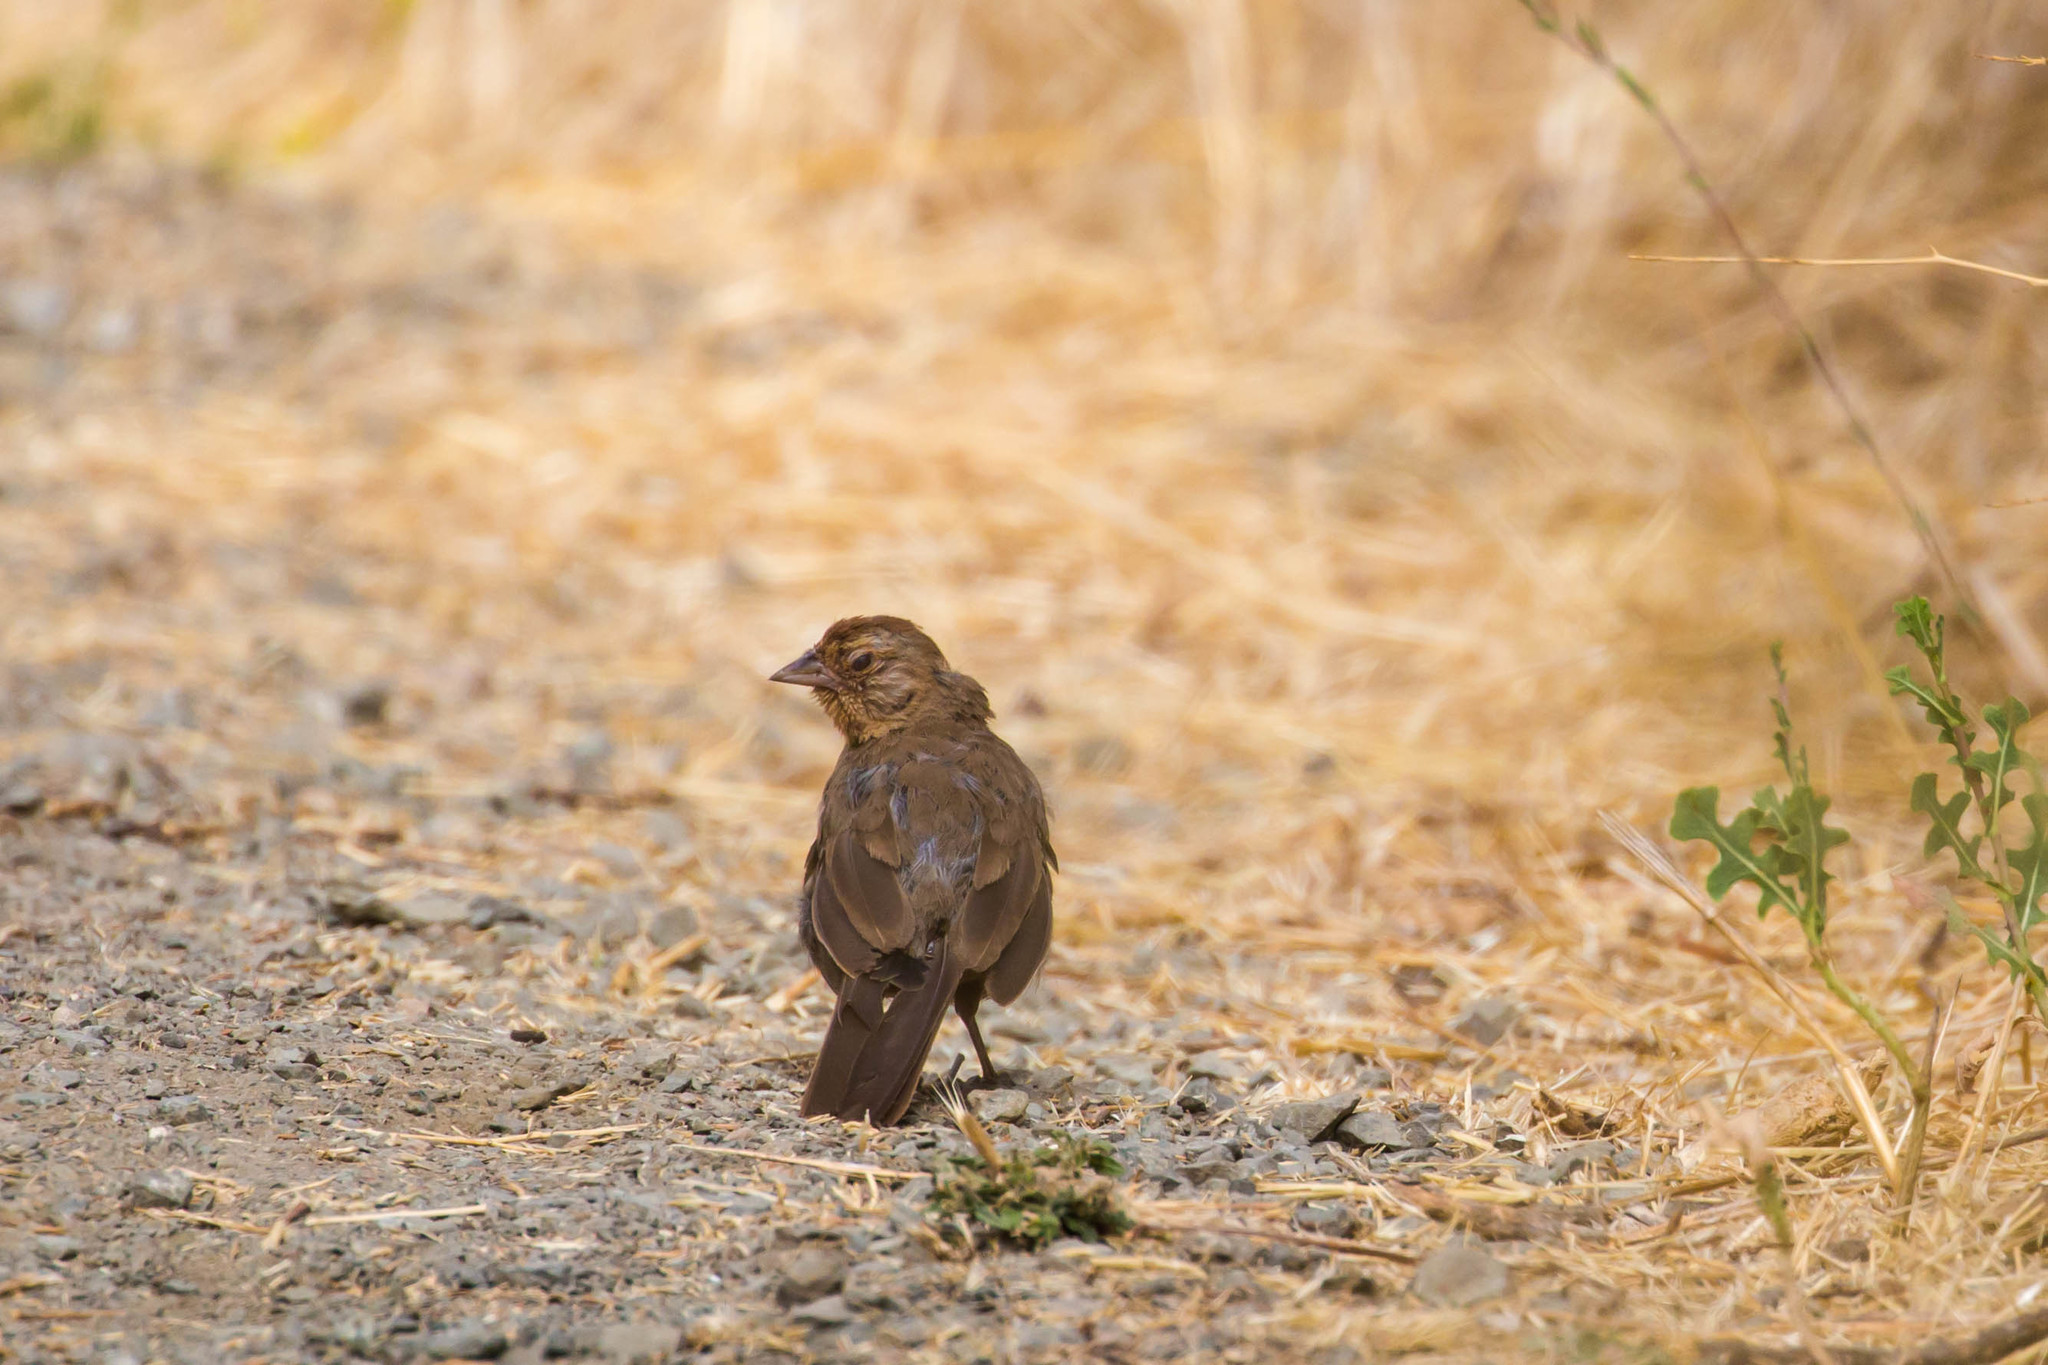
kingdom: Animalia
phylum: Chordata
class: Aves
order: Passeriformes
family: Passerellidae
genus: Melozone
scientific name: Melozone crissalis
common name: California towhee
